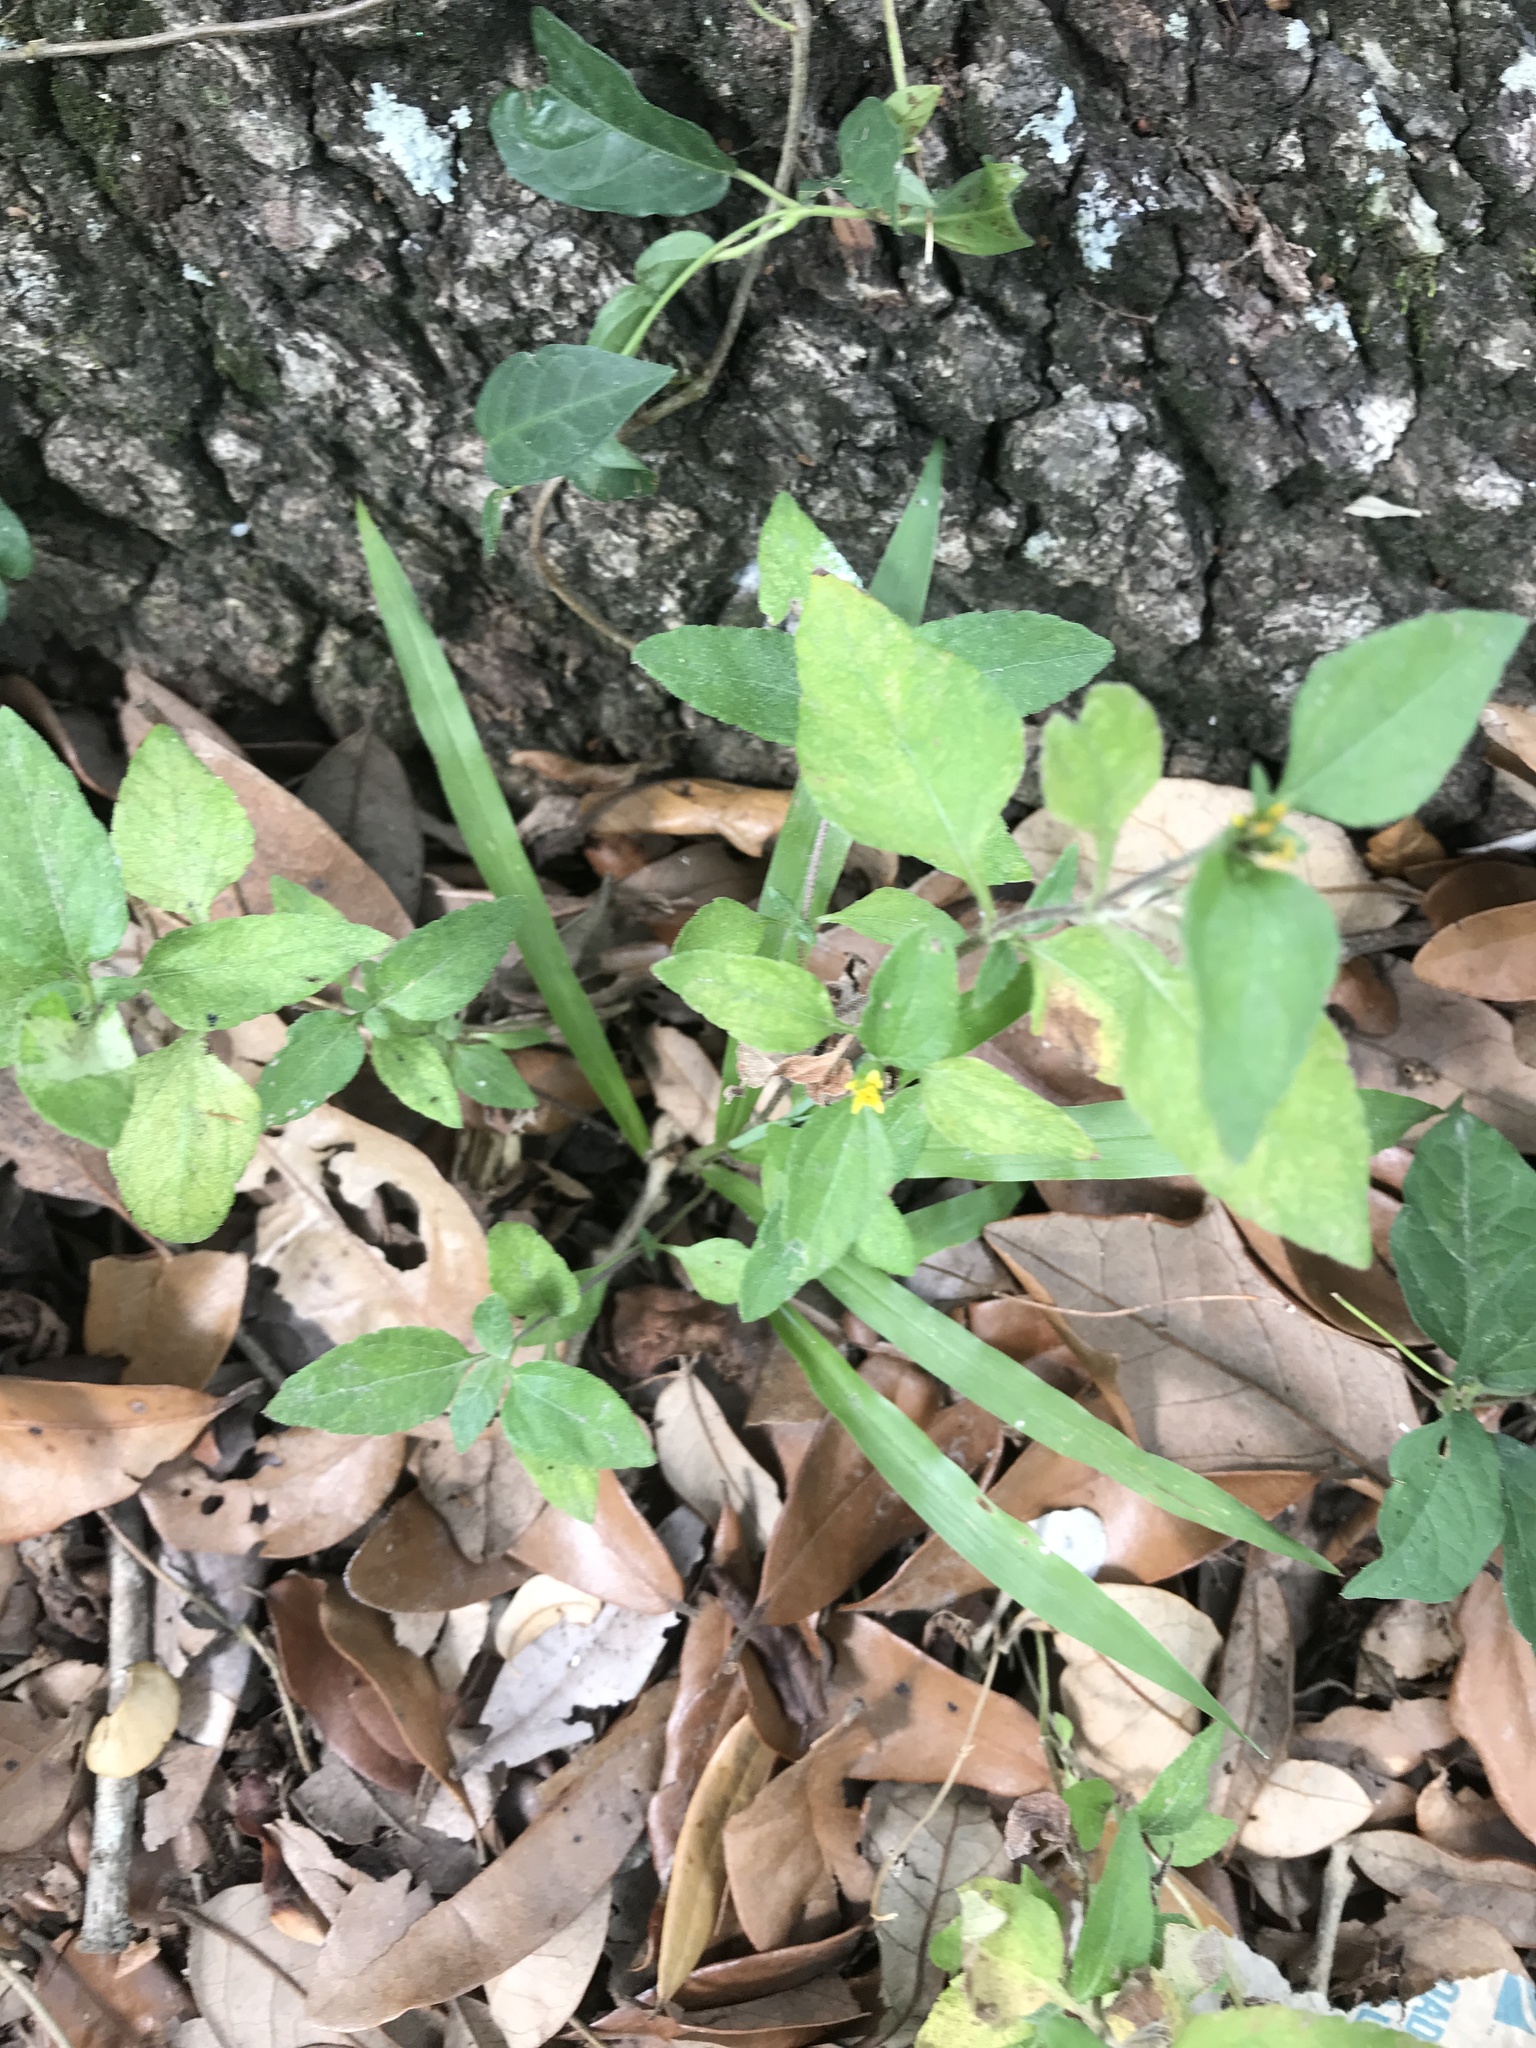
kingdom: Plantae
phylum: Tracheophyta
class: Magnoliopsida
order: Asterales
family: Asteraceae
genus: Calyptocarpus
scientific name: Calyptocarpus vialis
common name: Straggler daisy
